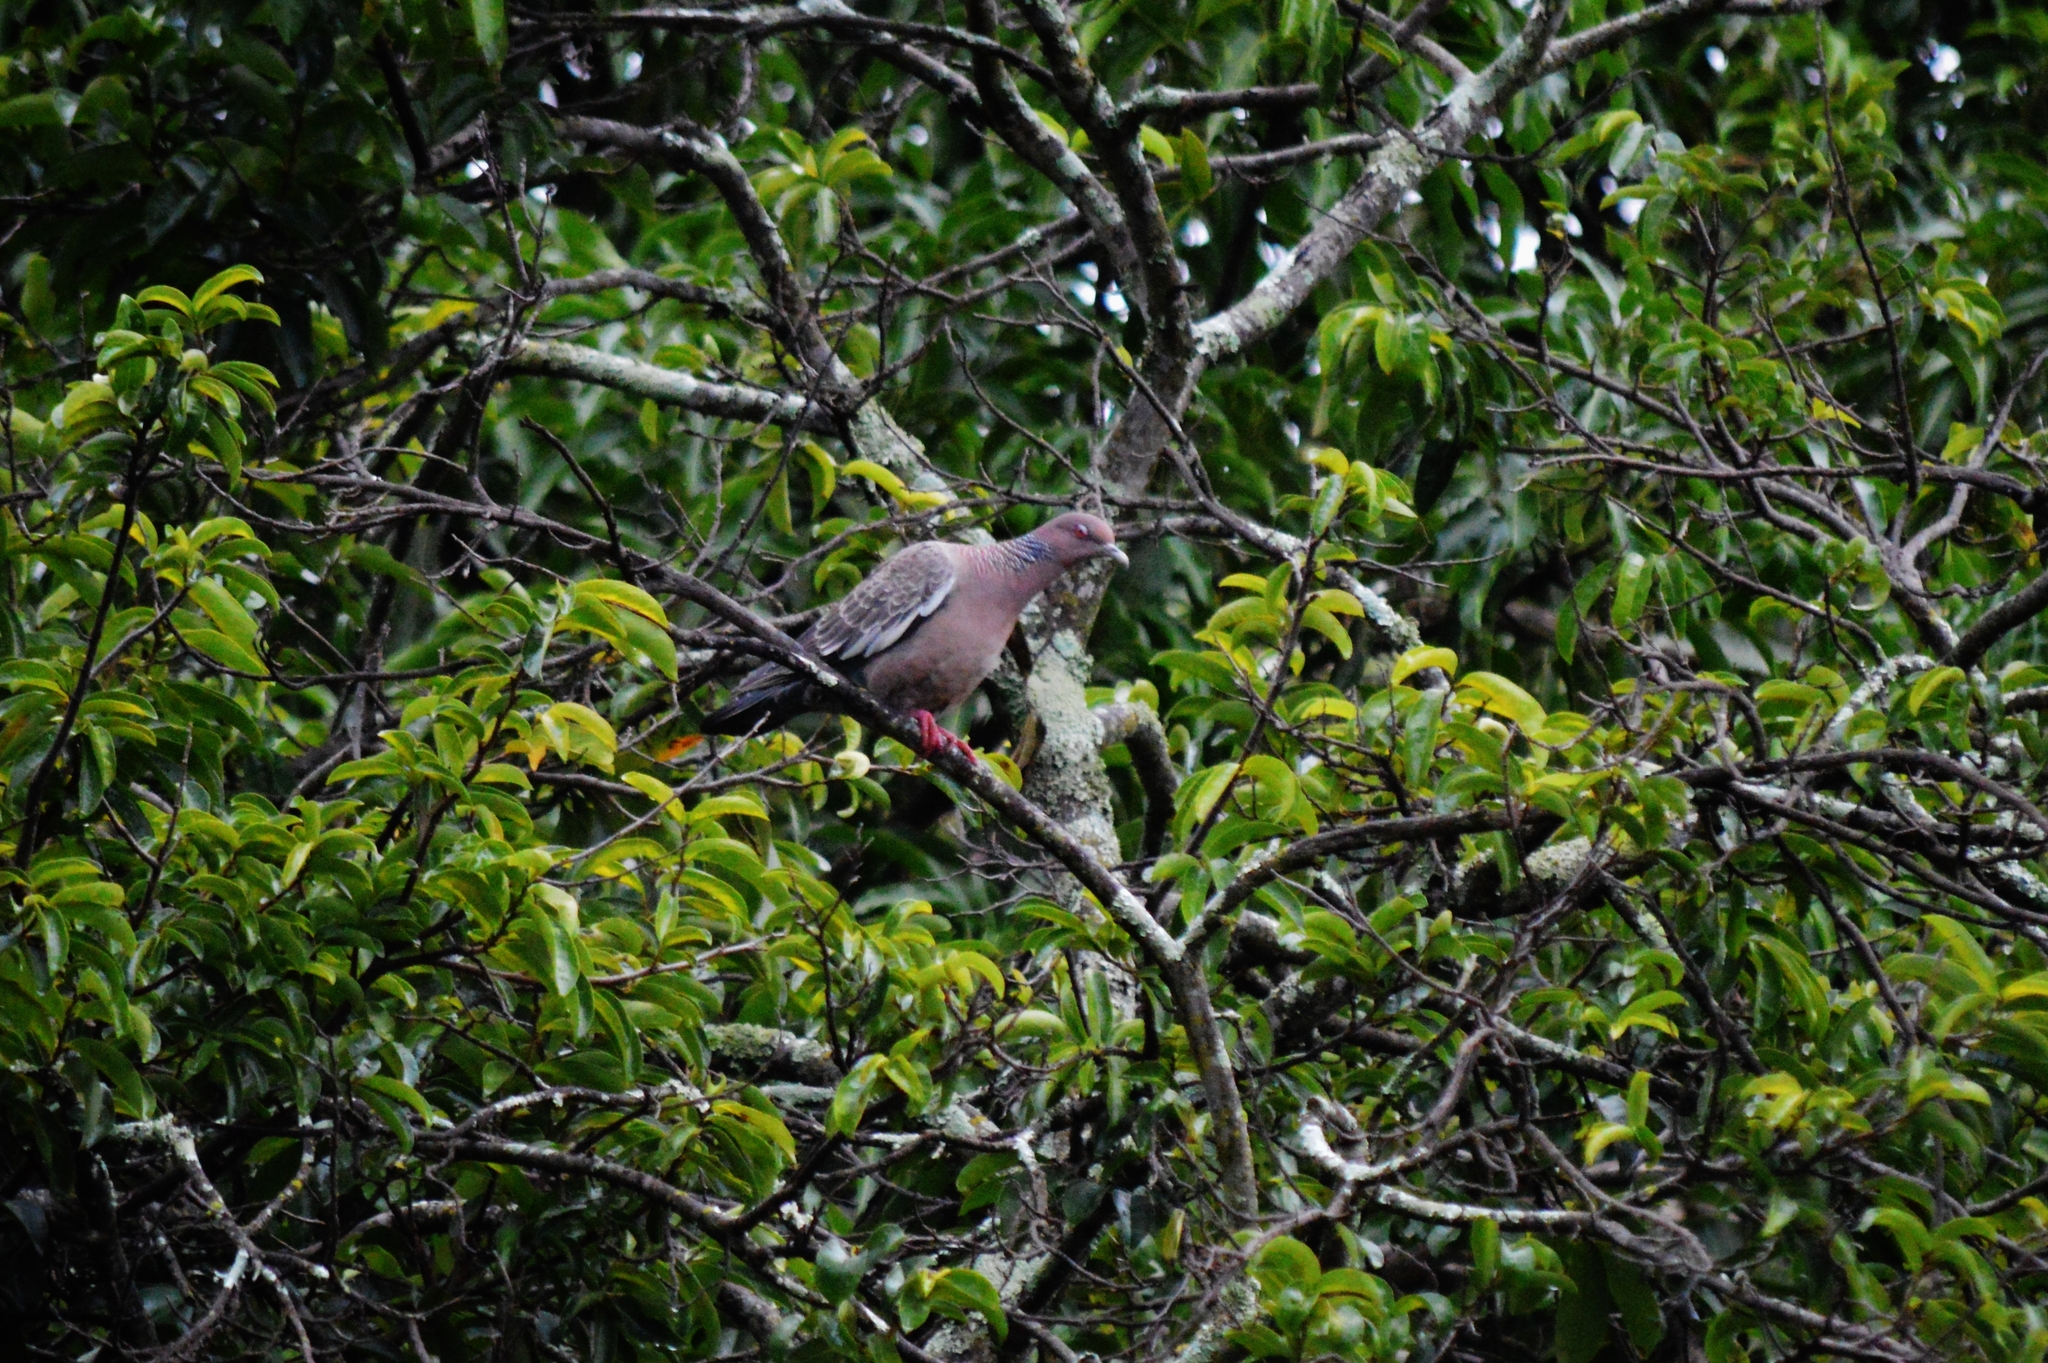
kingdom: Animalia
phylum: Chordata
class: Aves
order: Columbiformes
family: Columbidae
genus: Patagioenas
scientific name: Patagioenas picazuro
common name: Picazuro pigeon
